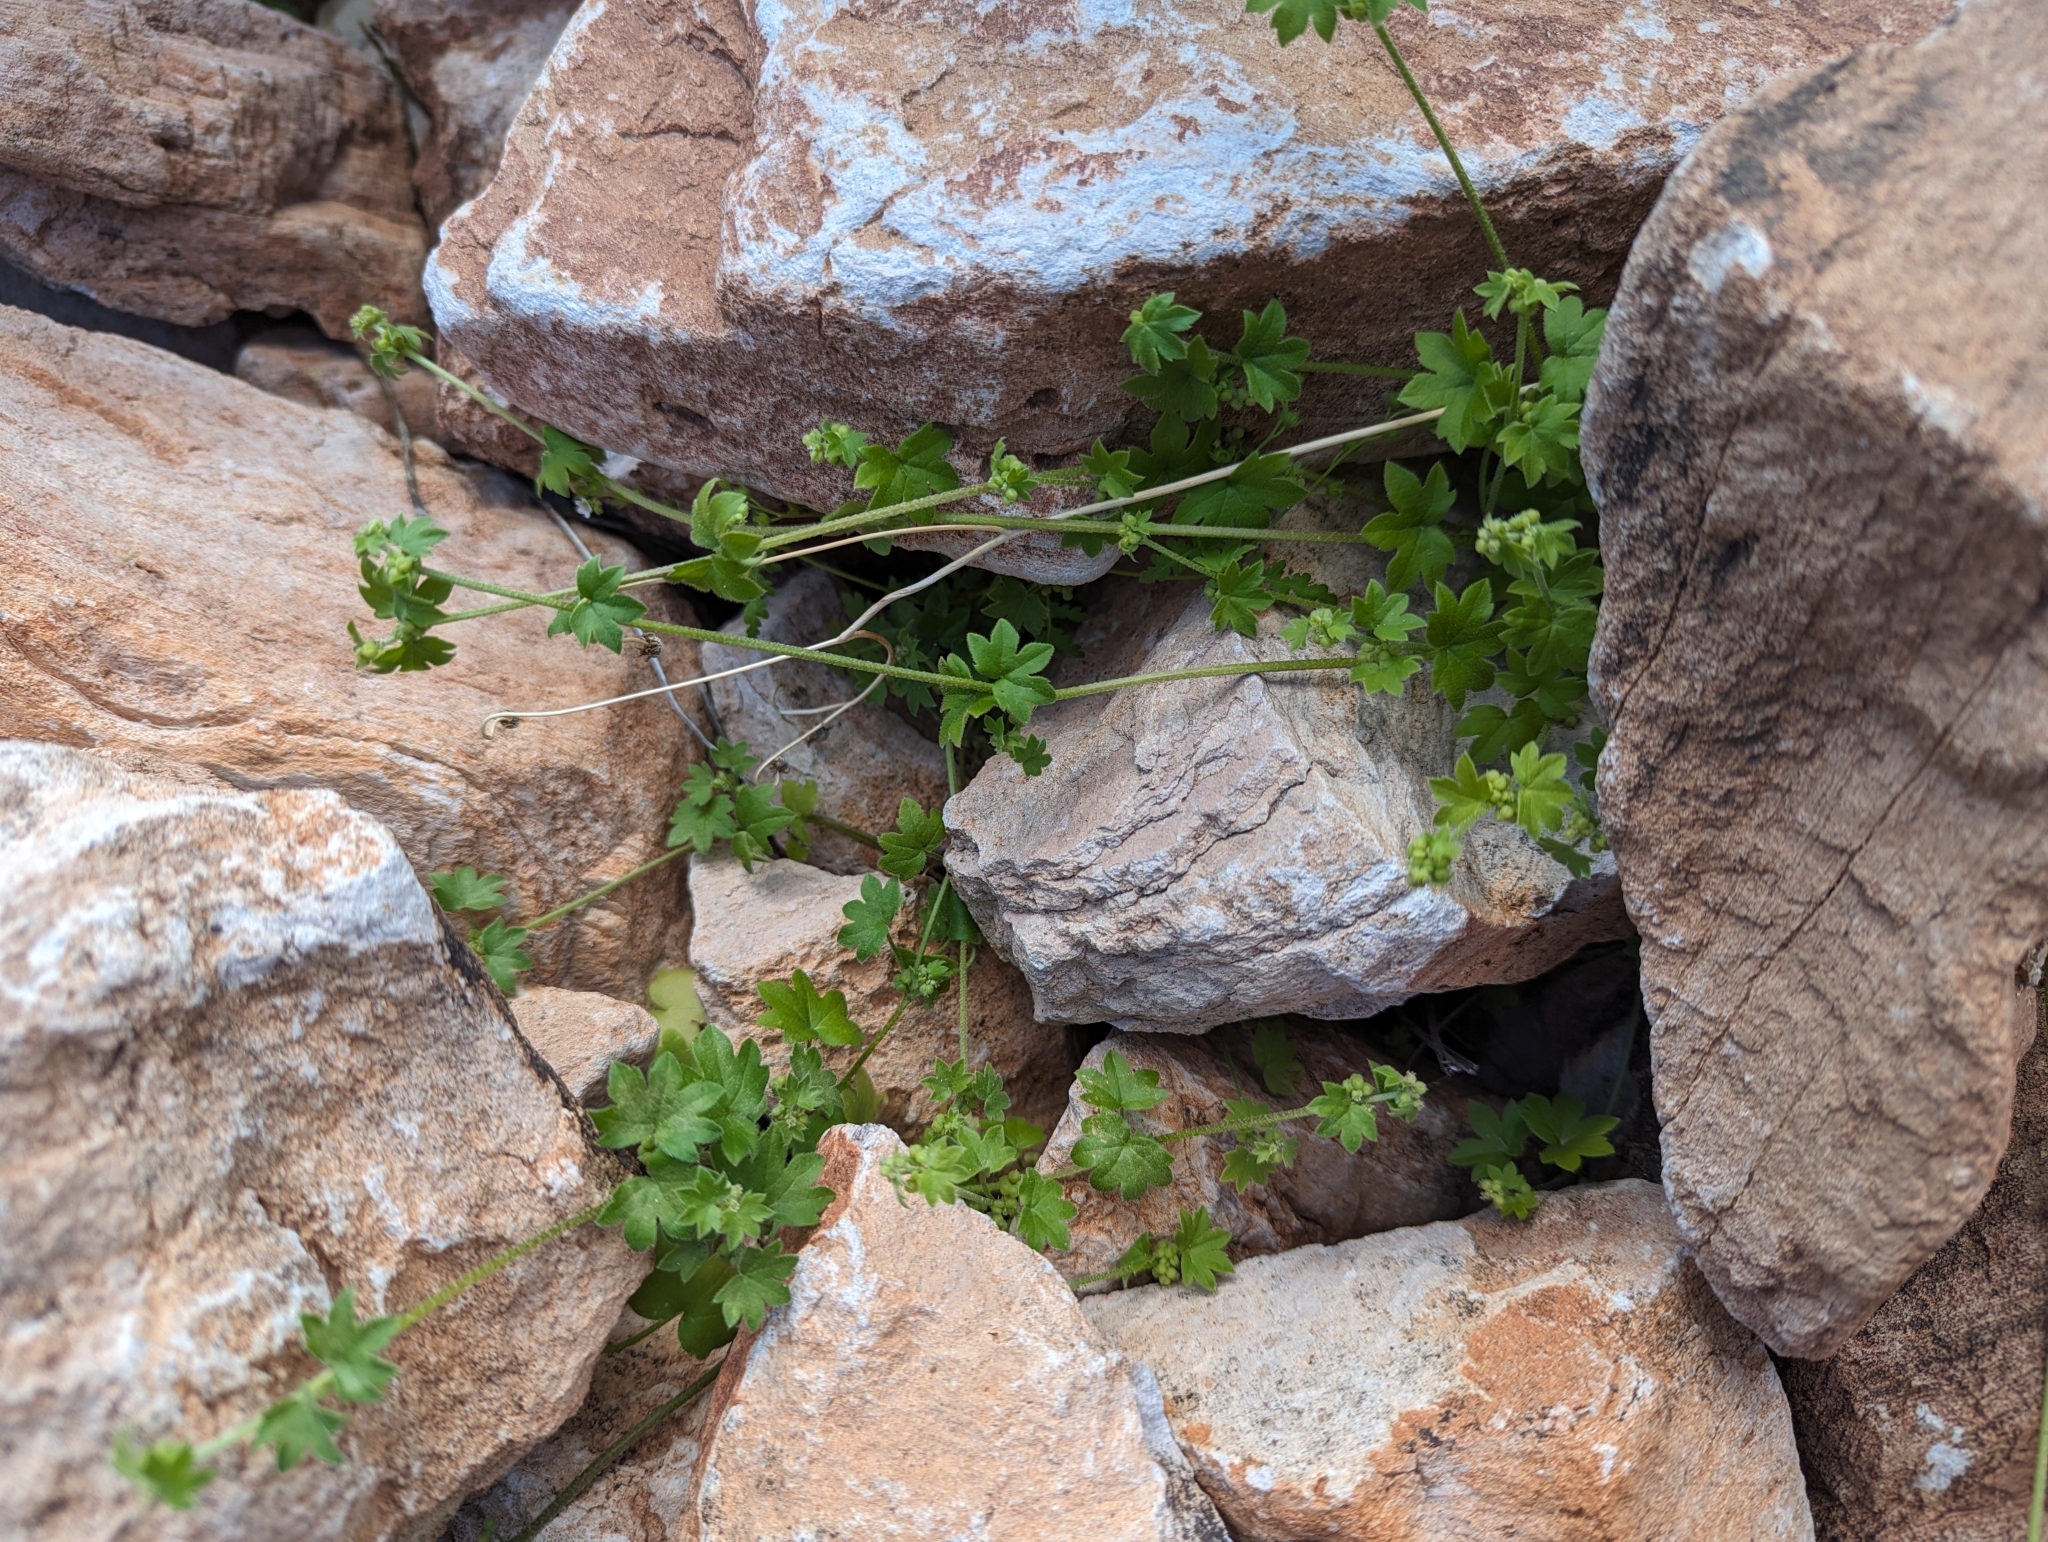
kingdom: Plantae
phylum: Tracheophyta
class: Magnoliopsida
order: Apiales
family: Apiaceae
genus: Bowlesia
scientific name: Bowlesia incana
